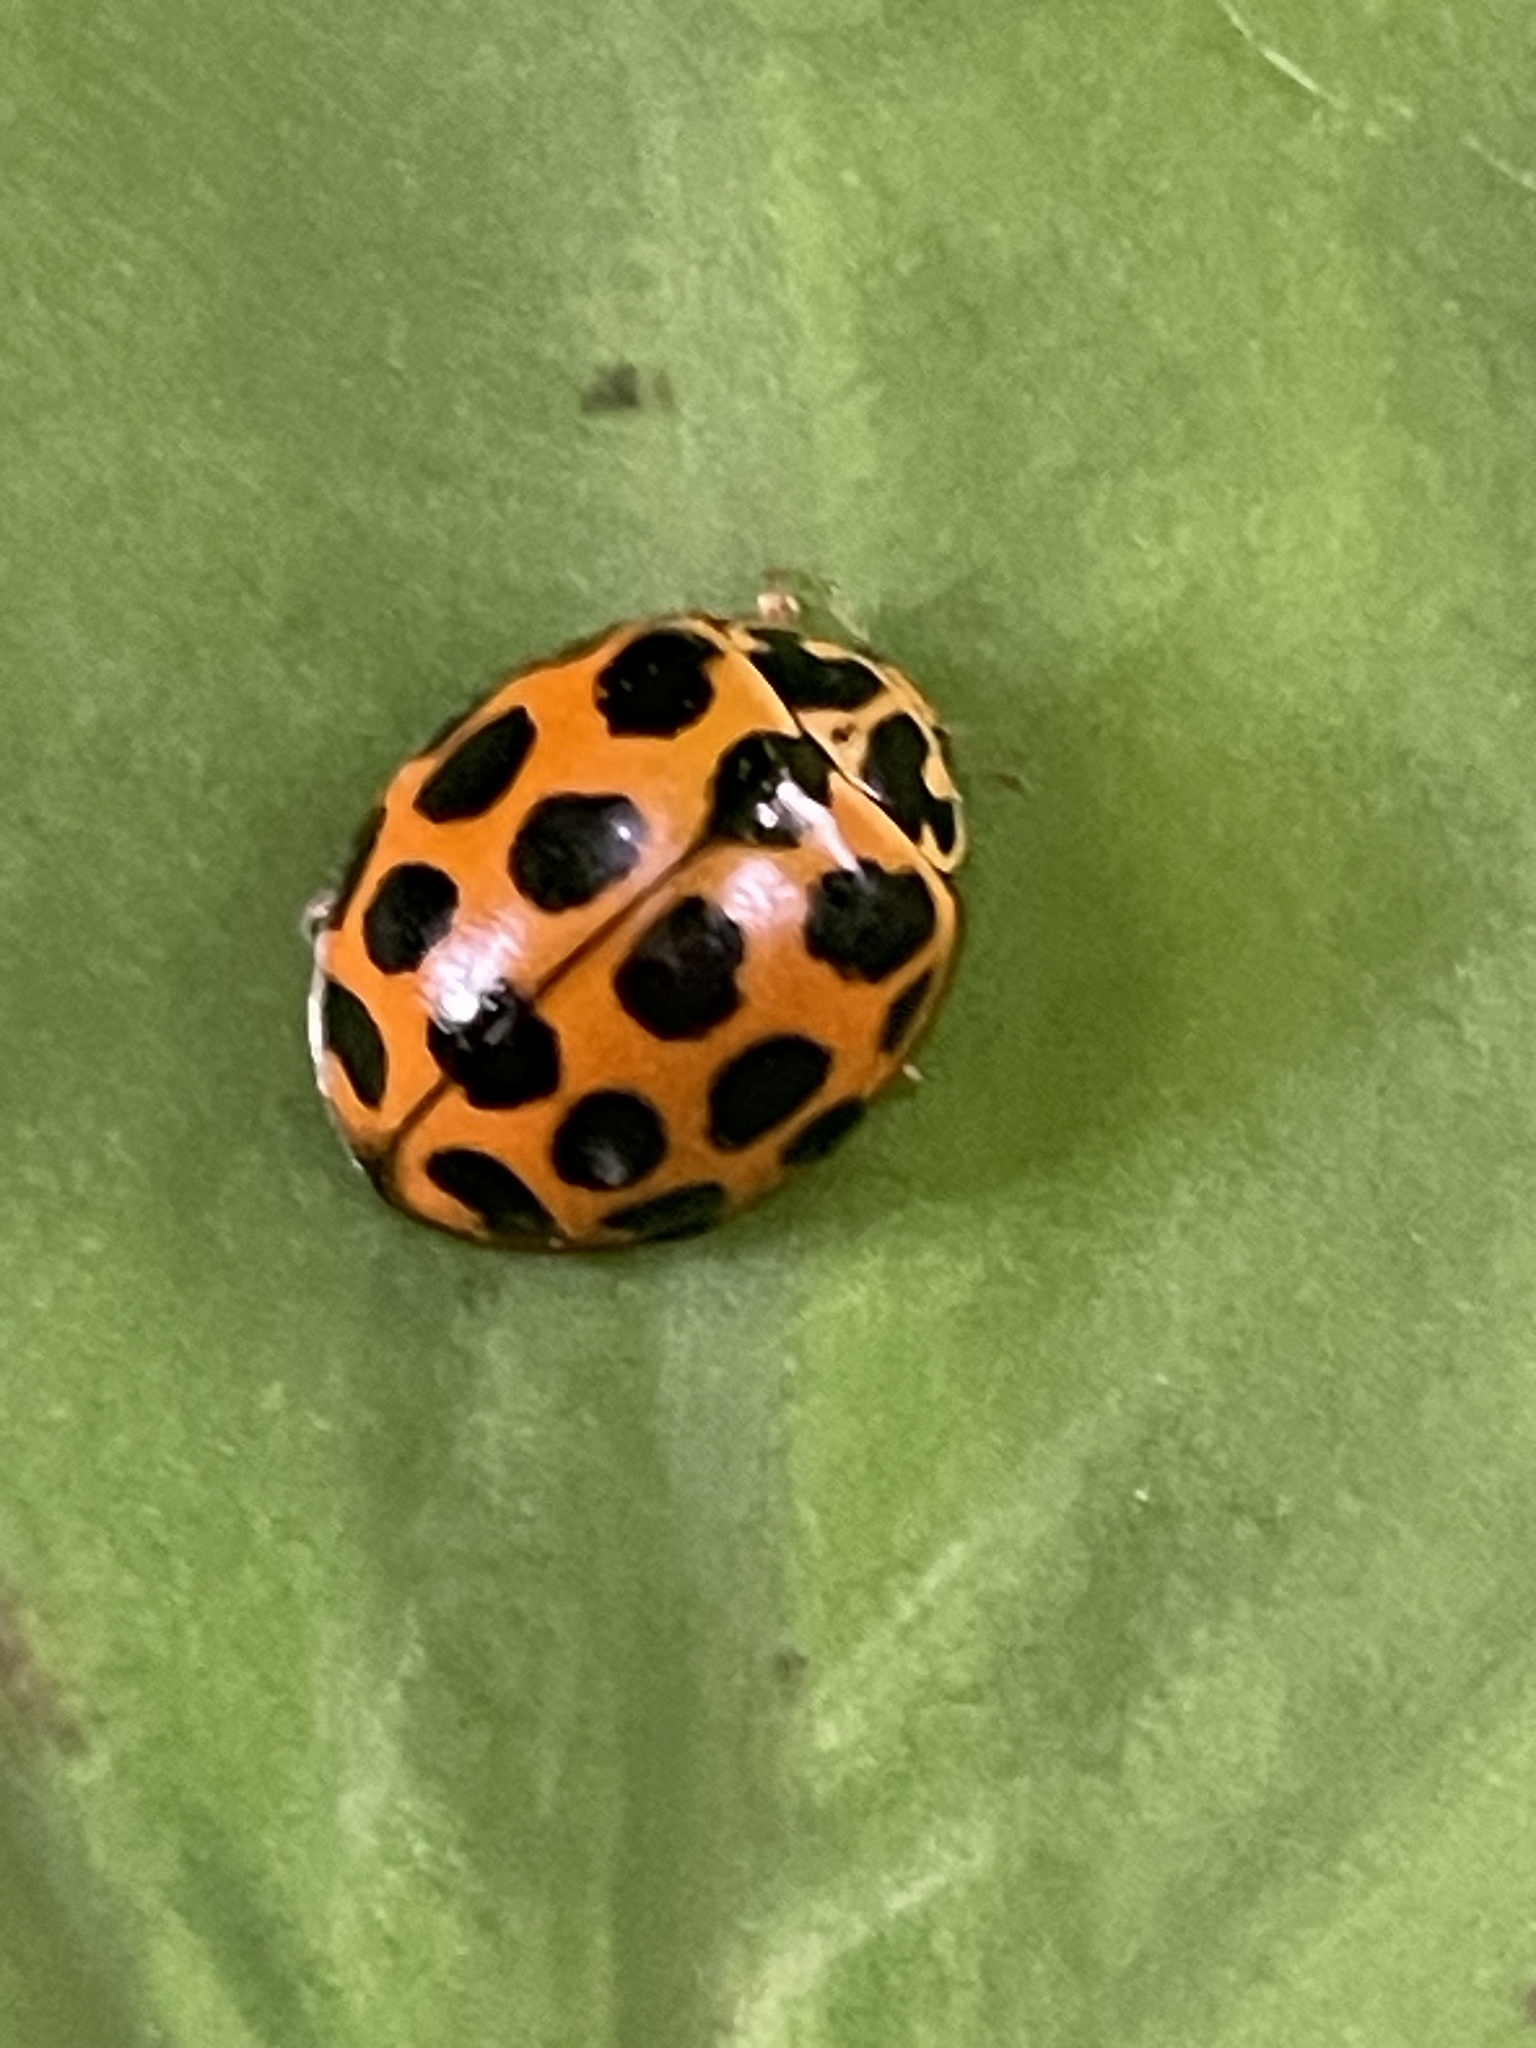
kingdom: Animalia
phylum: Arthropoda
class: Insecta
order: Coleoptera
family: Coccinellidae
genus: Harmonia
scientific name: Harmonia conformis
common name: Common spotted ladybird beetle
